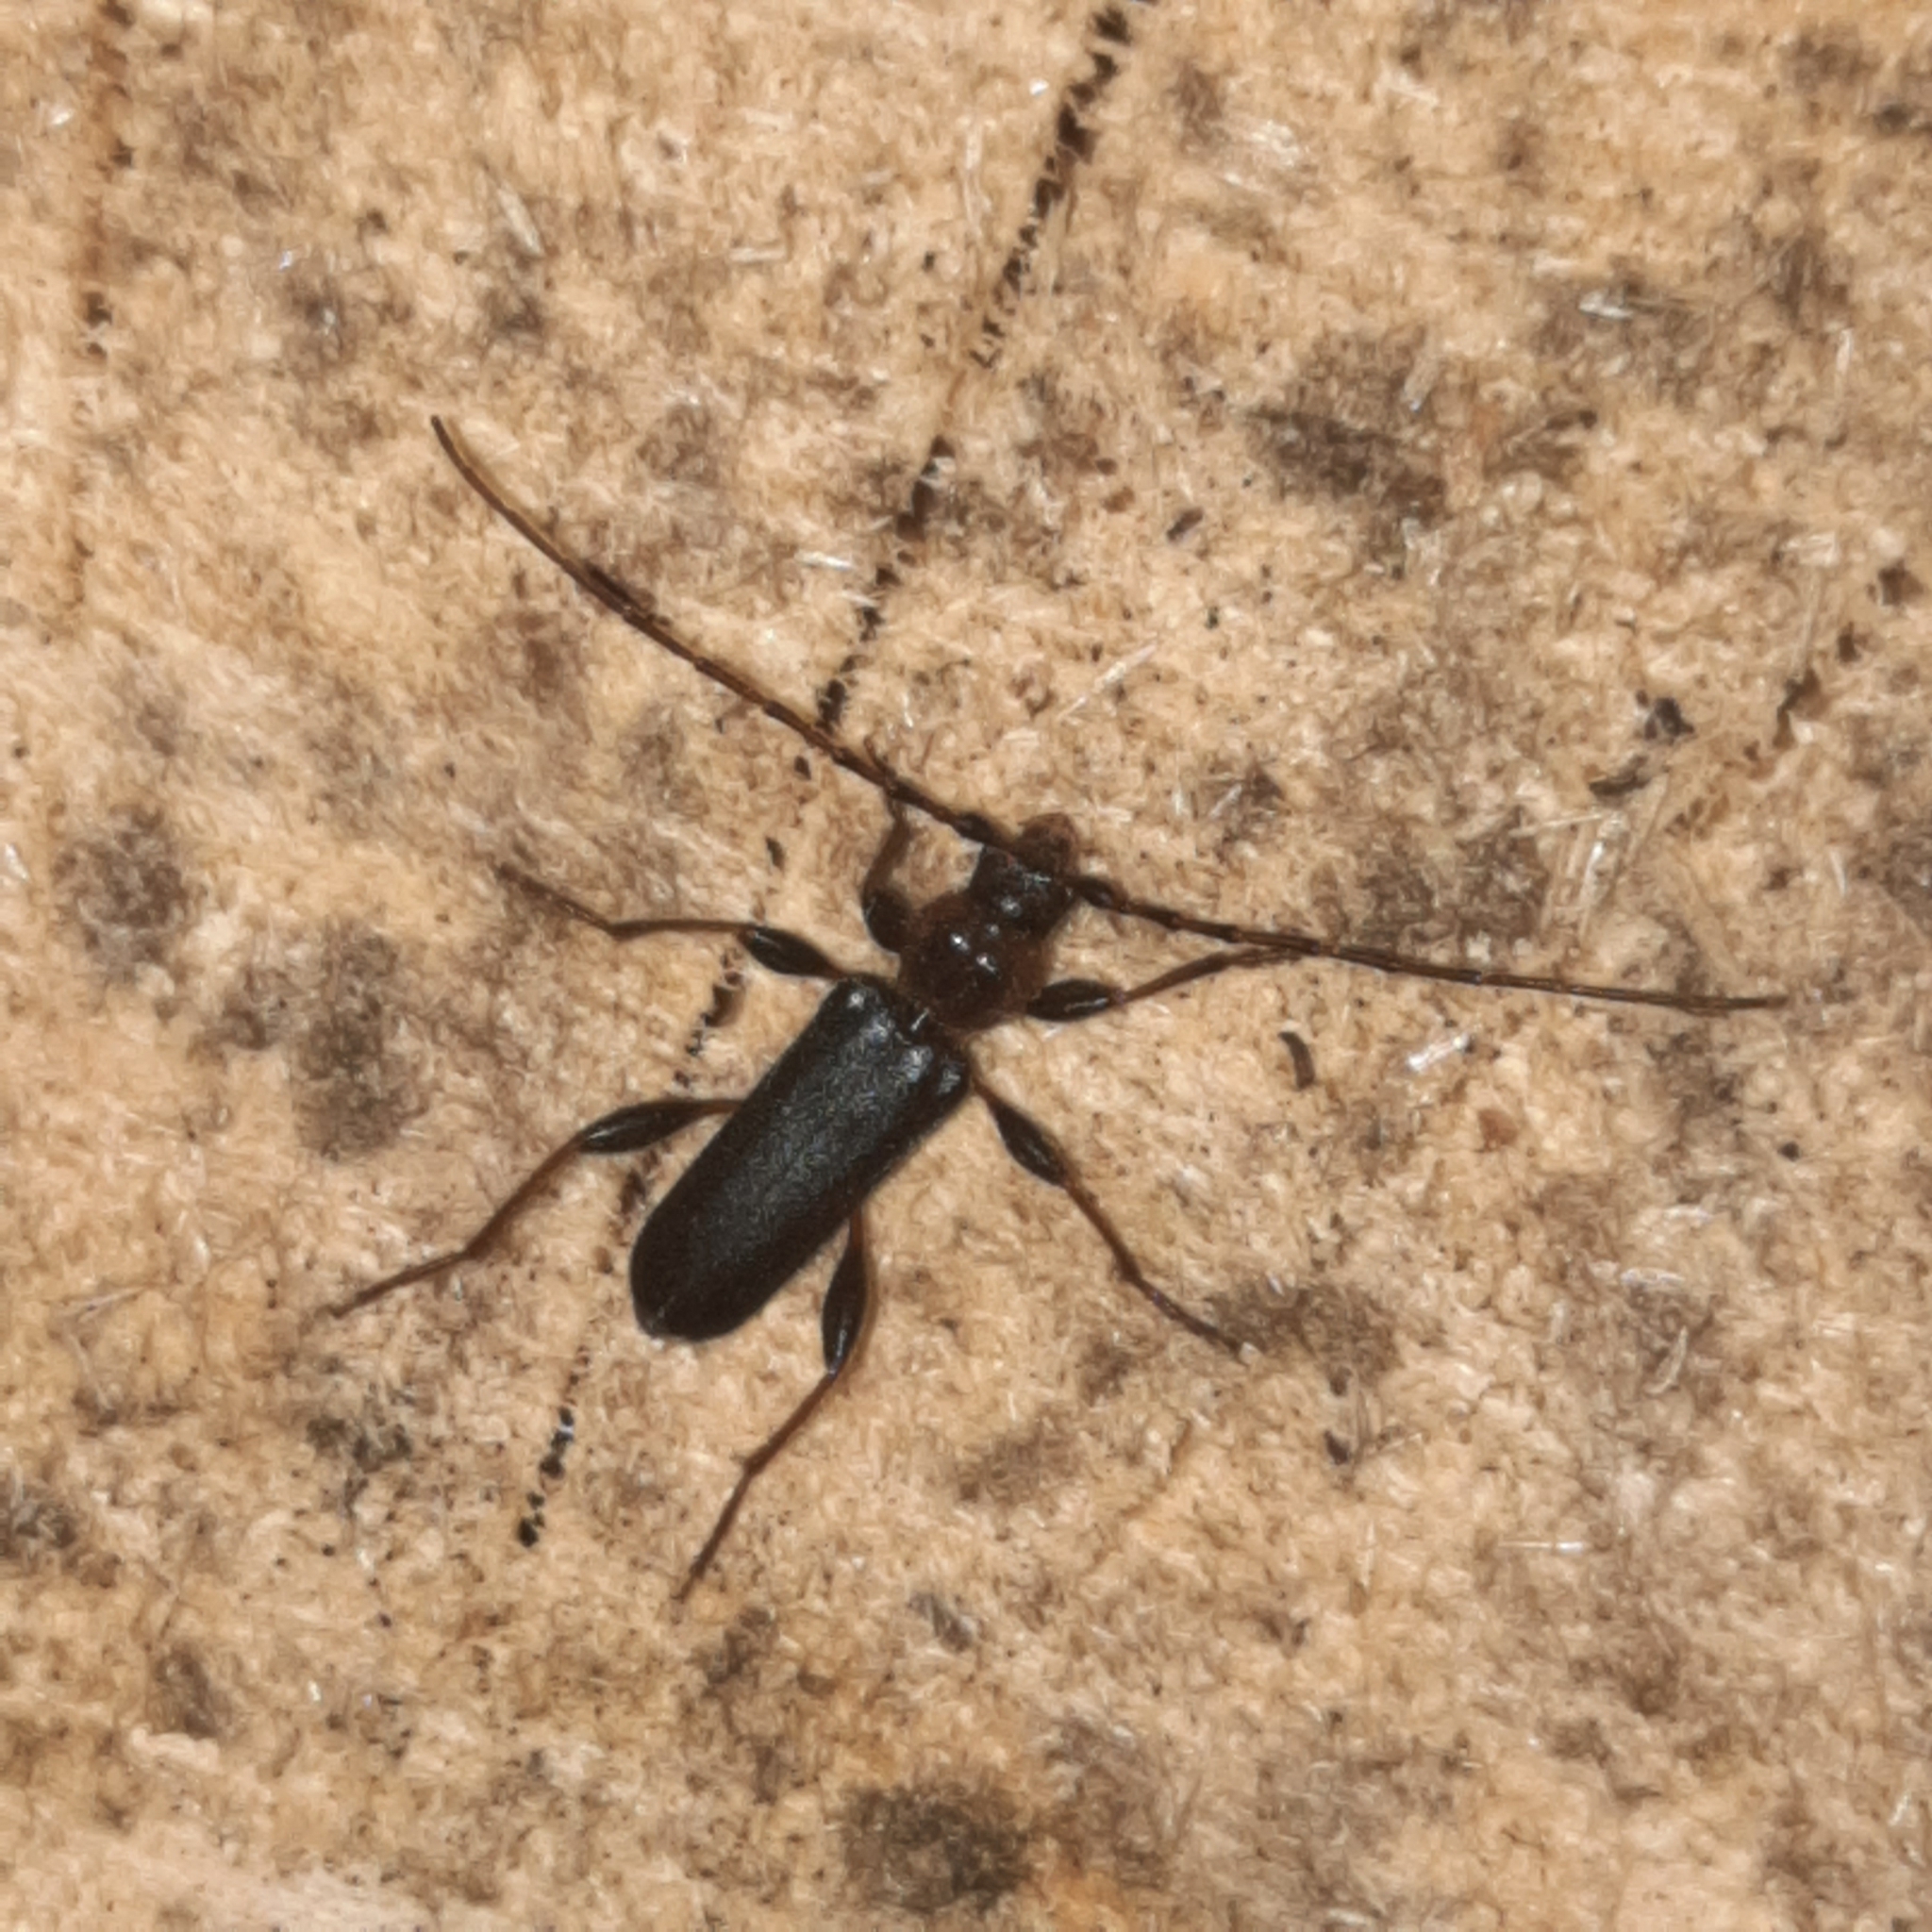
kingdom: Animalia
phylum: Arthropoda
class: Insecta
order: Coleoptera
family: Cerambycidae
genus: Phymatodes
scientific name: Phymatodes testaceus
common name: Long-horned beetle
